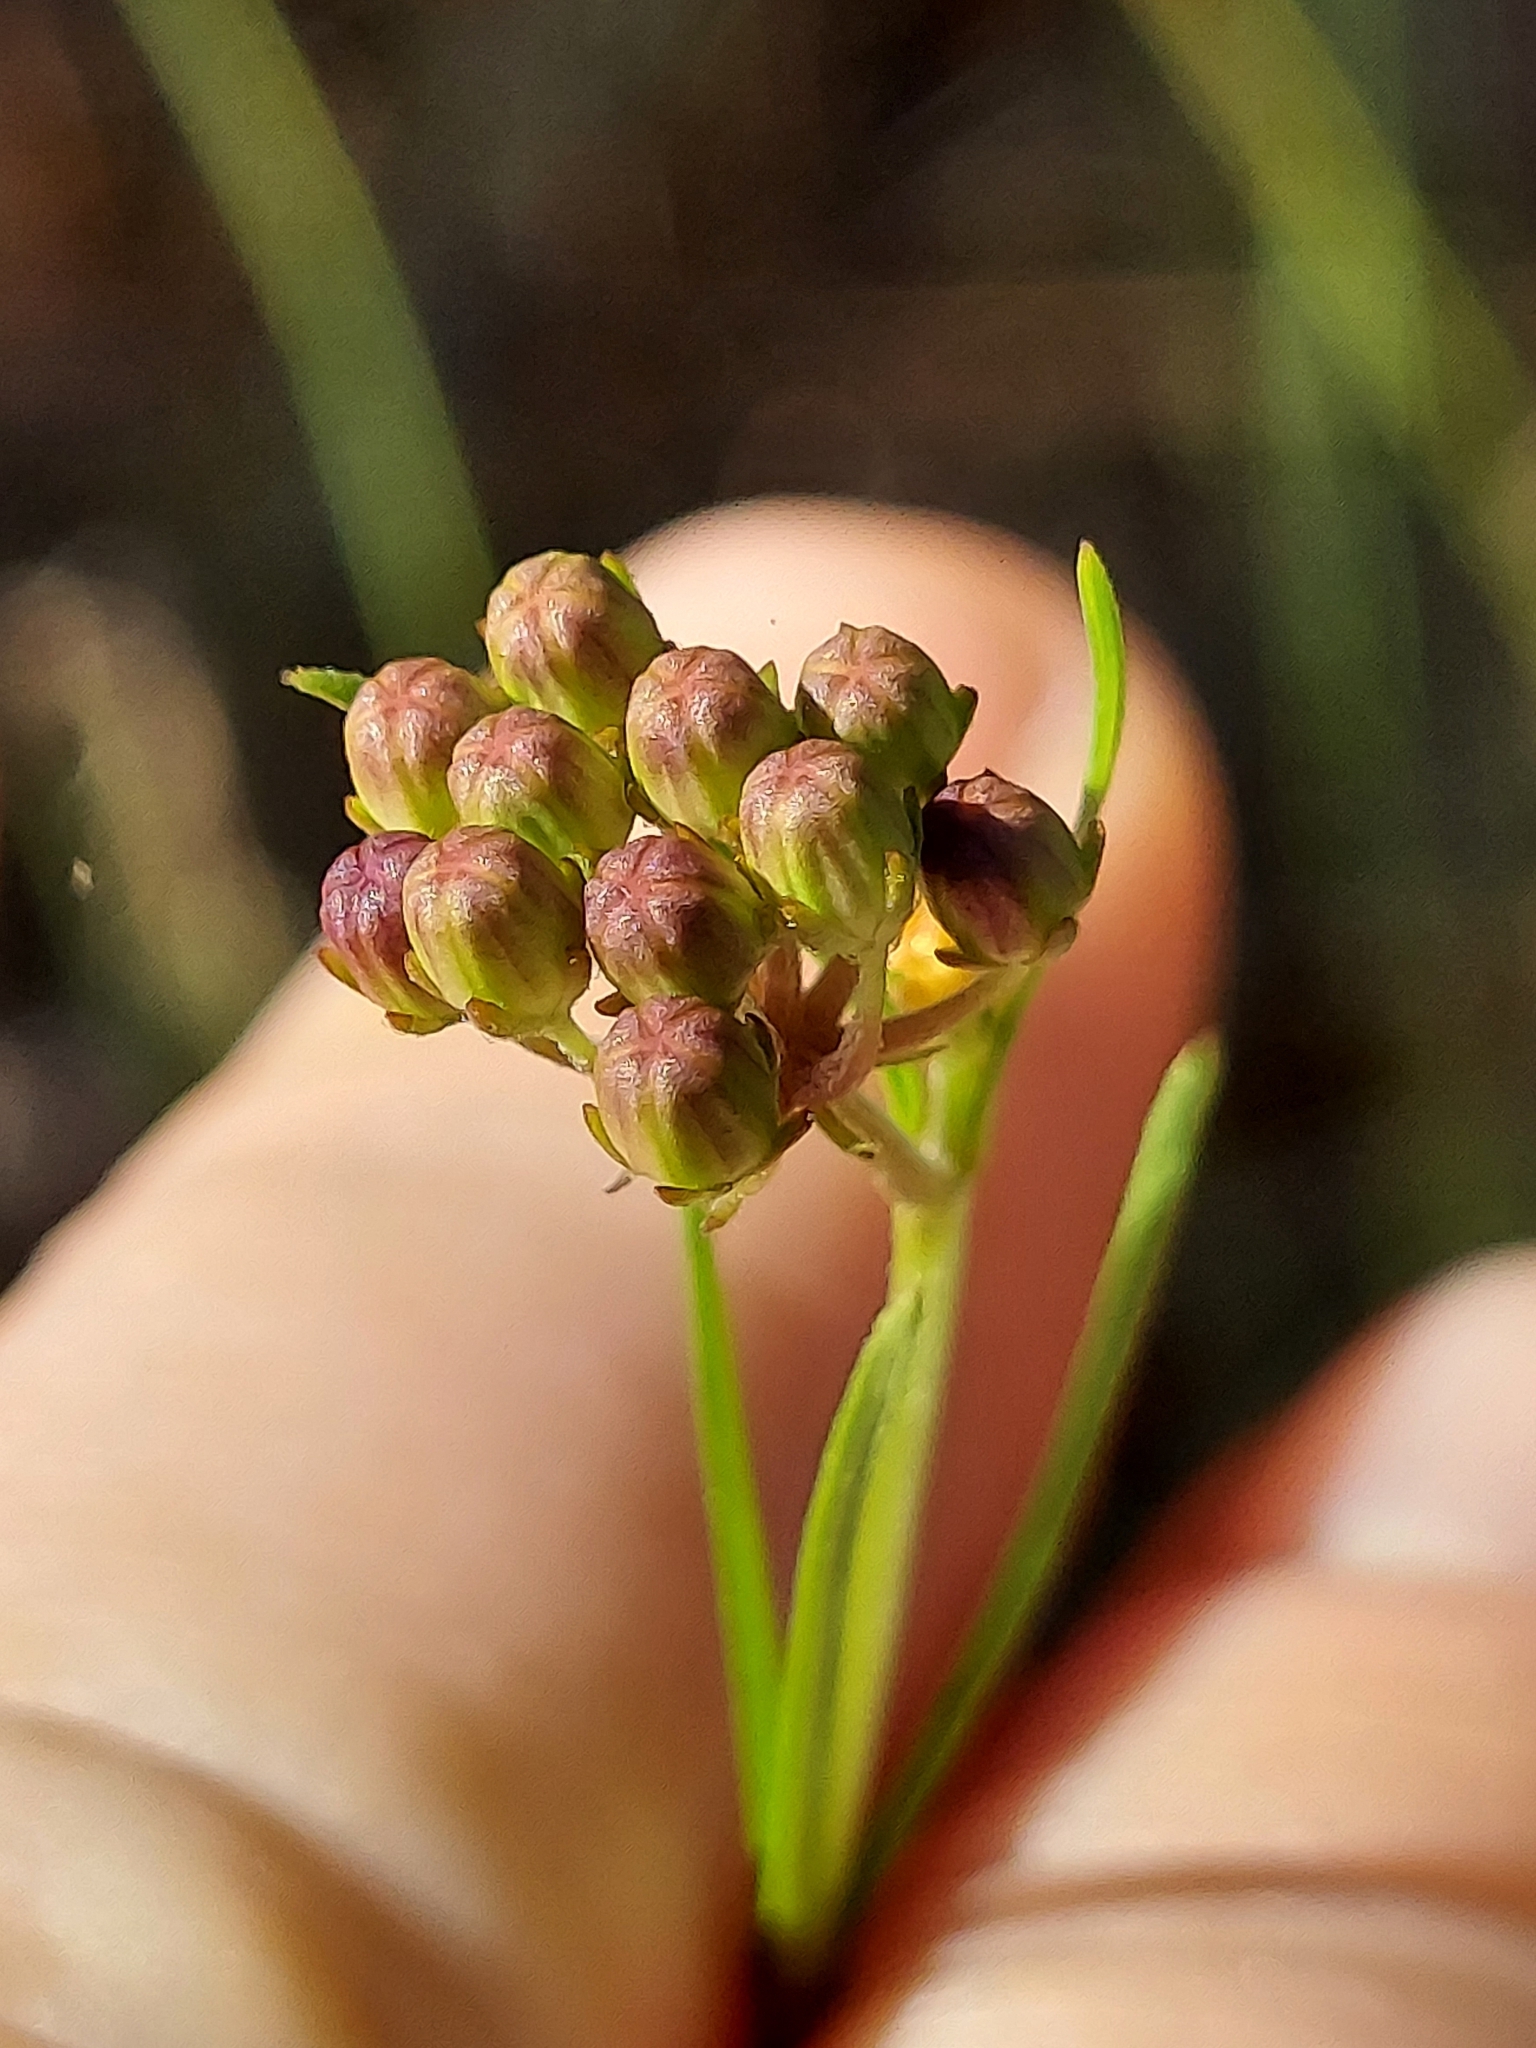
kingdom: Plantae
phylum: Tracheophyta
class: Magnoliopsida
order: Gentianales
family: Apocynaceae
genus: Asclepias
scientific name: Asclepias verticillata
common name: Eastern whorled milkweed
